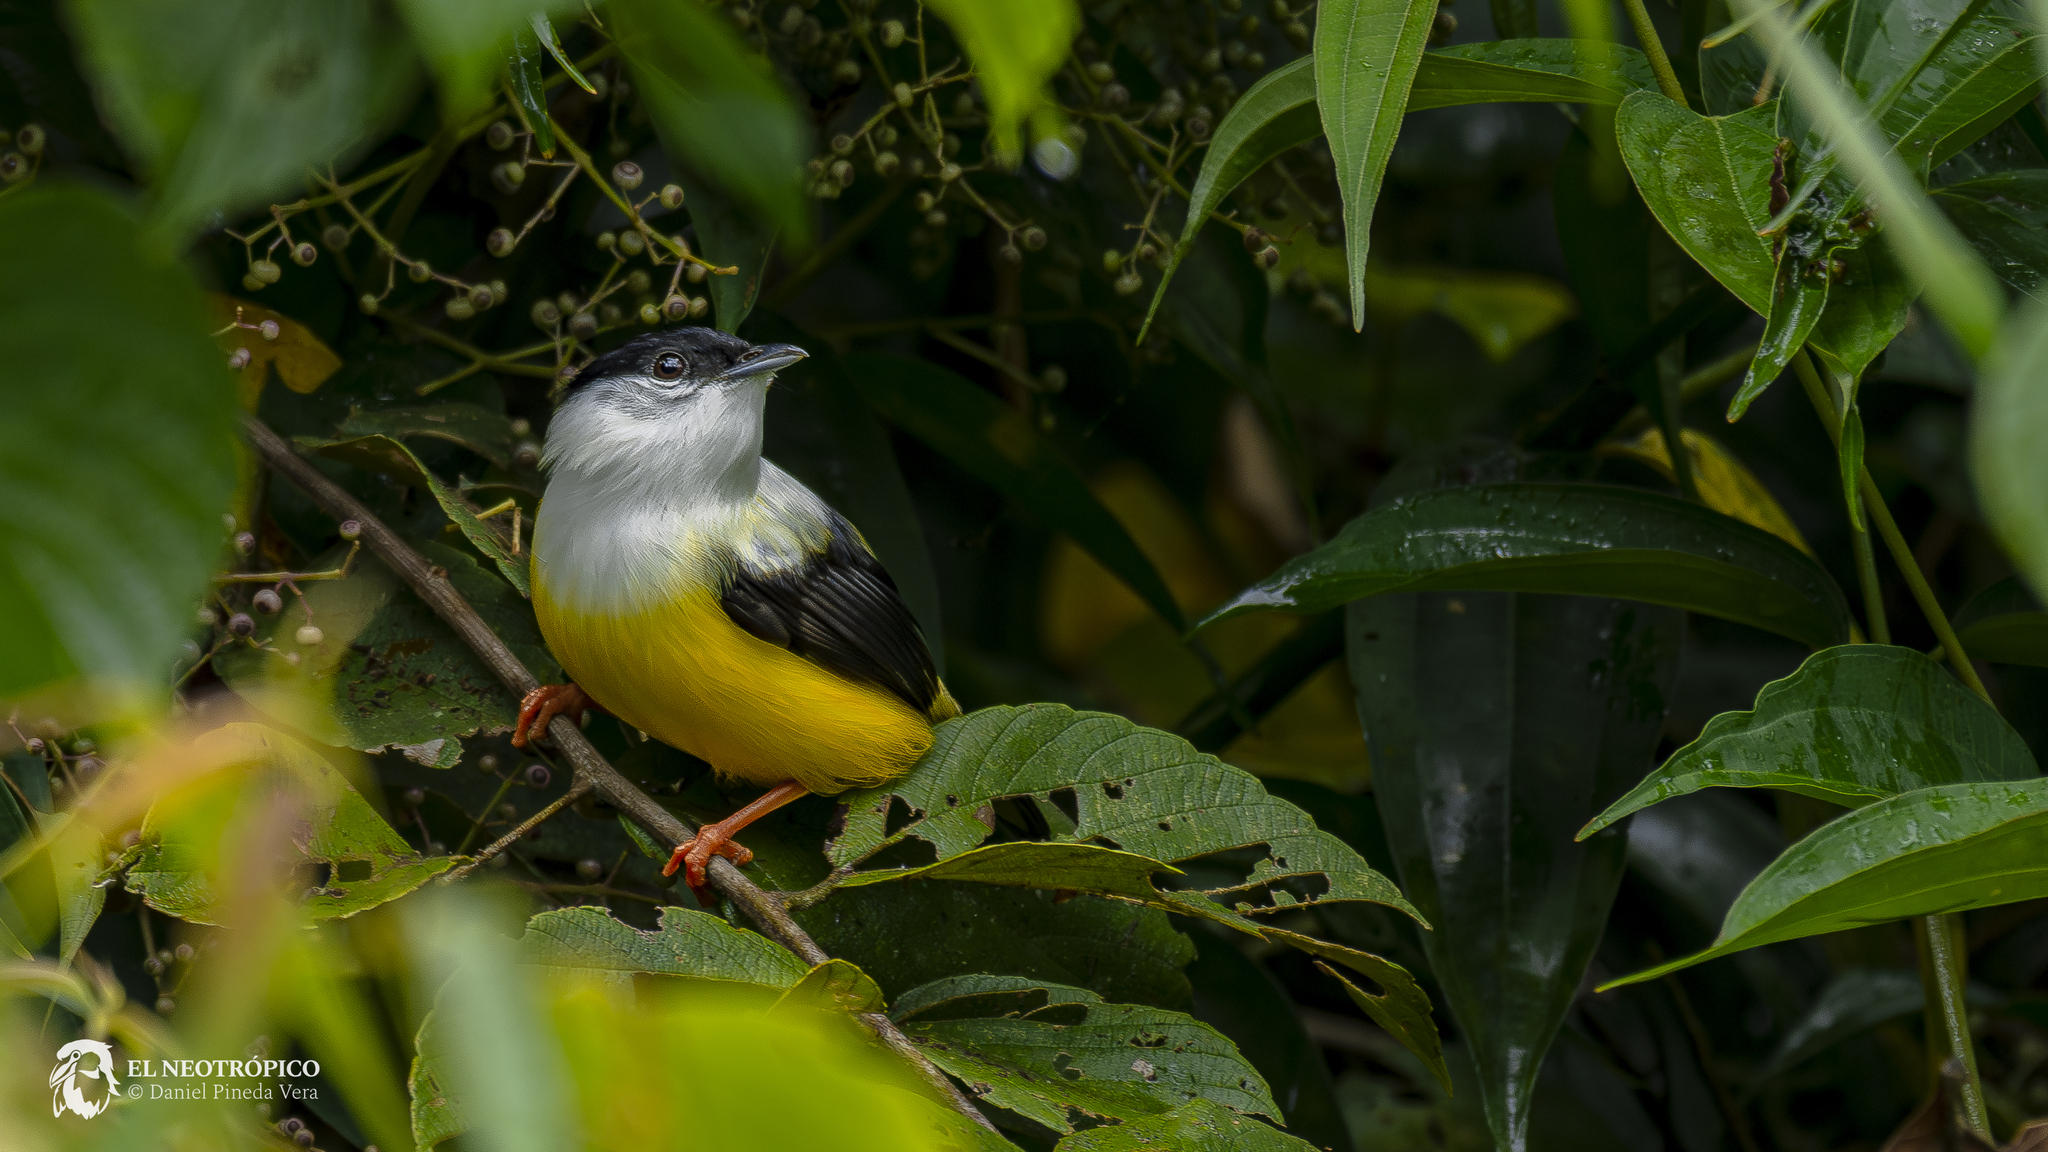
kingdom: Animalia
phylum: Chordata
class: Aves
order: Passeriformes
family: Pipridae
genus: Manacus
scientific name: Manacus candei
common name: White-collared manakin
